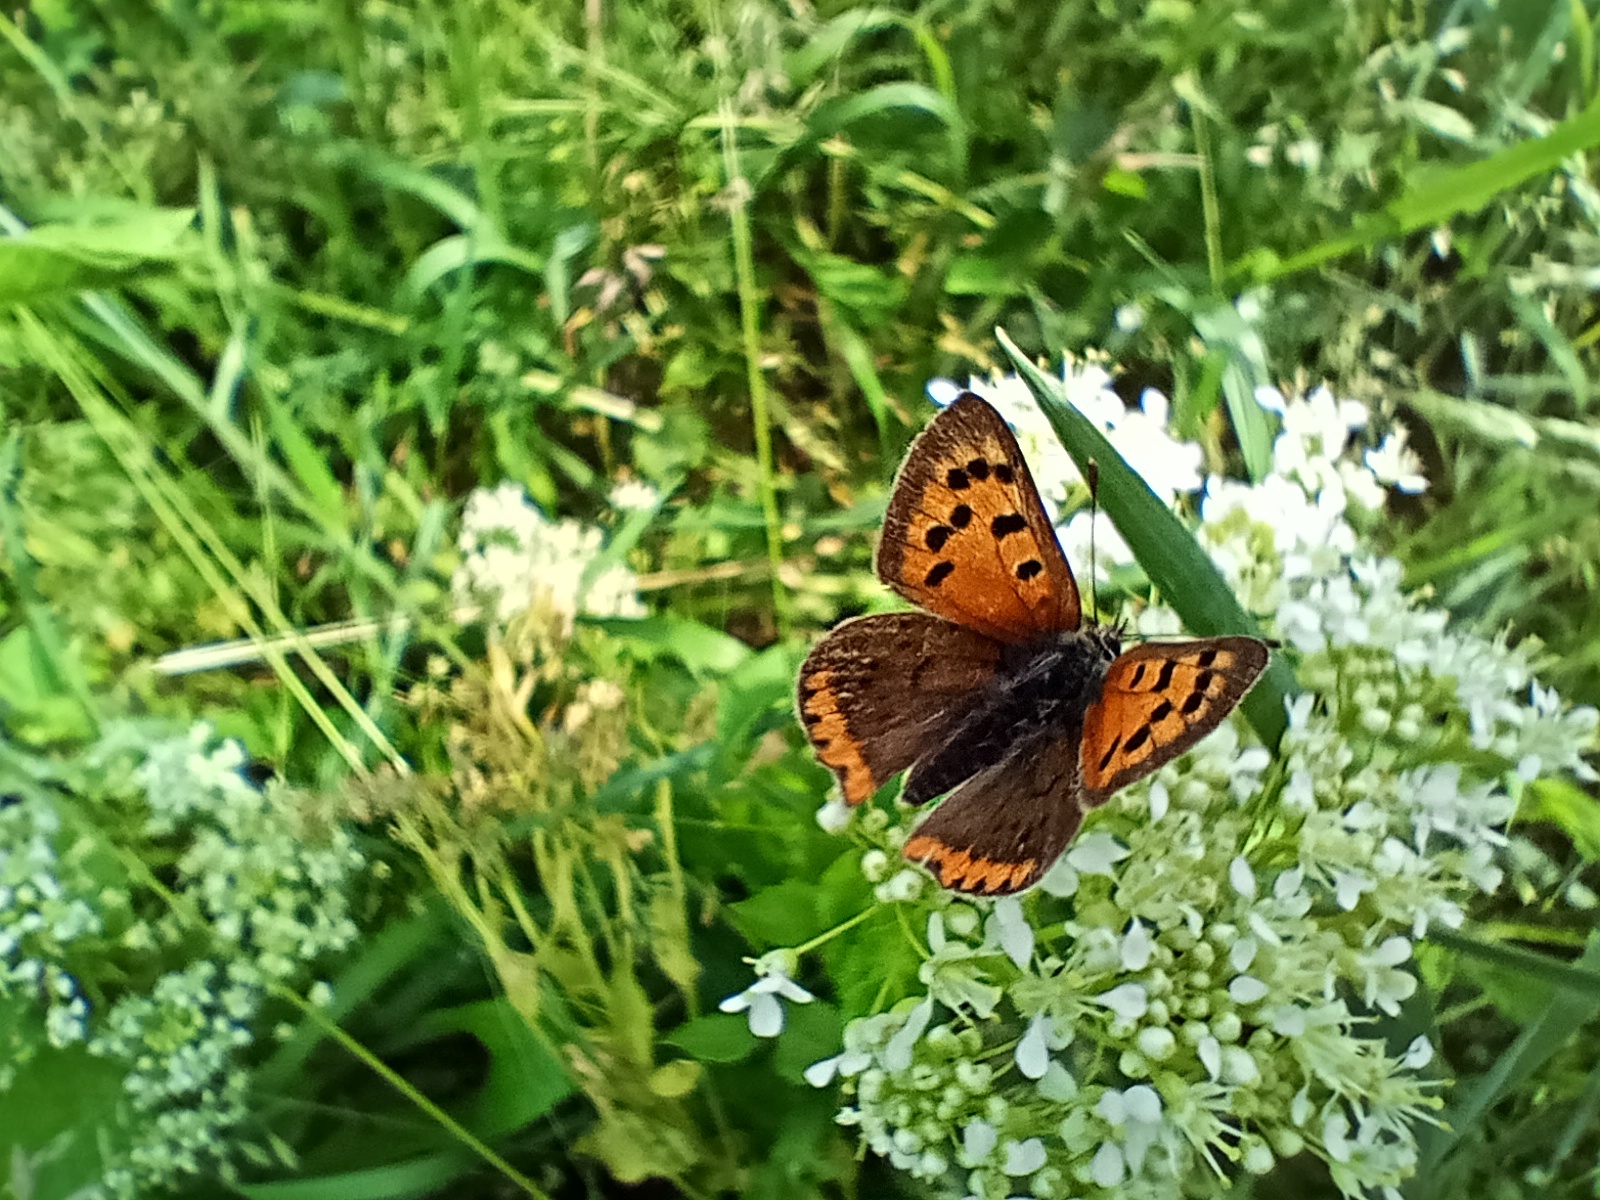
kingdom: Animalia
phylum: Arthropoda
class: Insecta
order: Lepidoptera
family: Lycaenidae
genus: Lycaena
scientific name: Lycaena phlaeas
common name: Small copper
